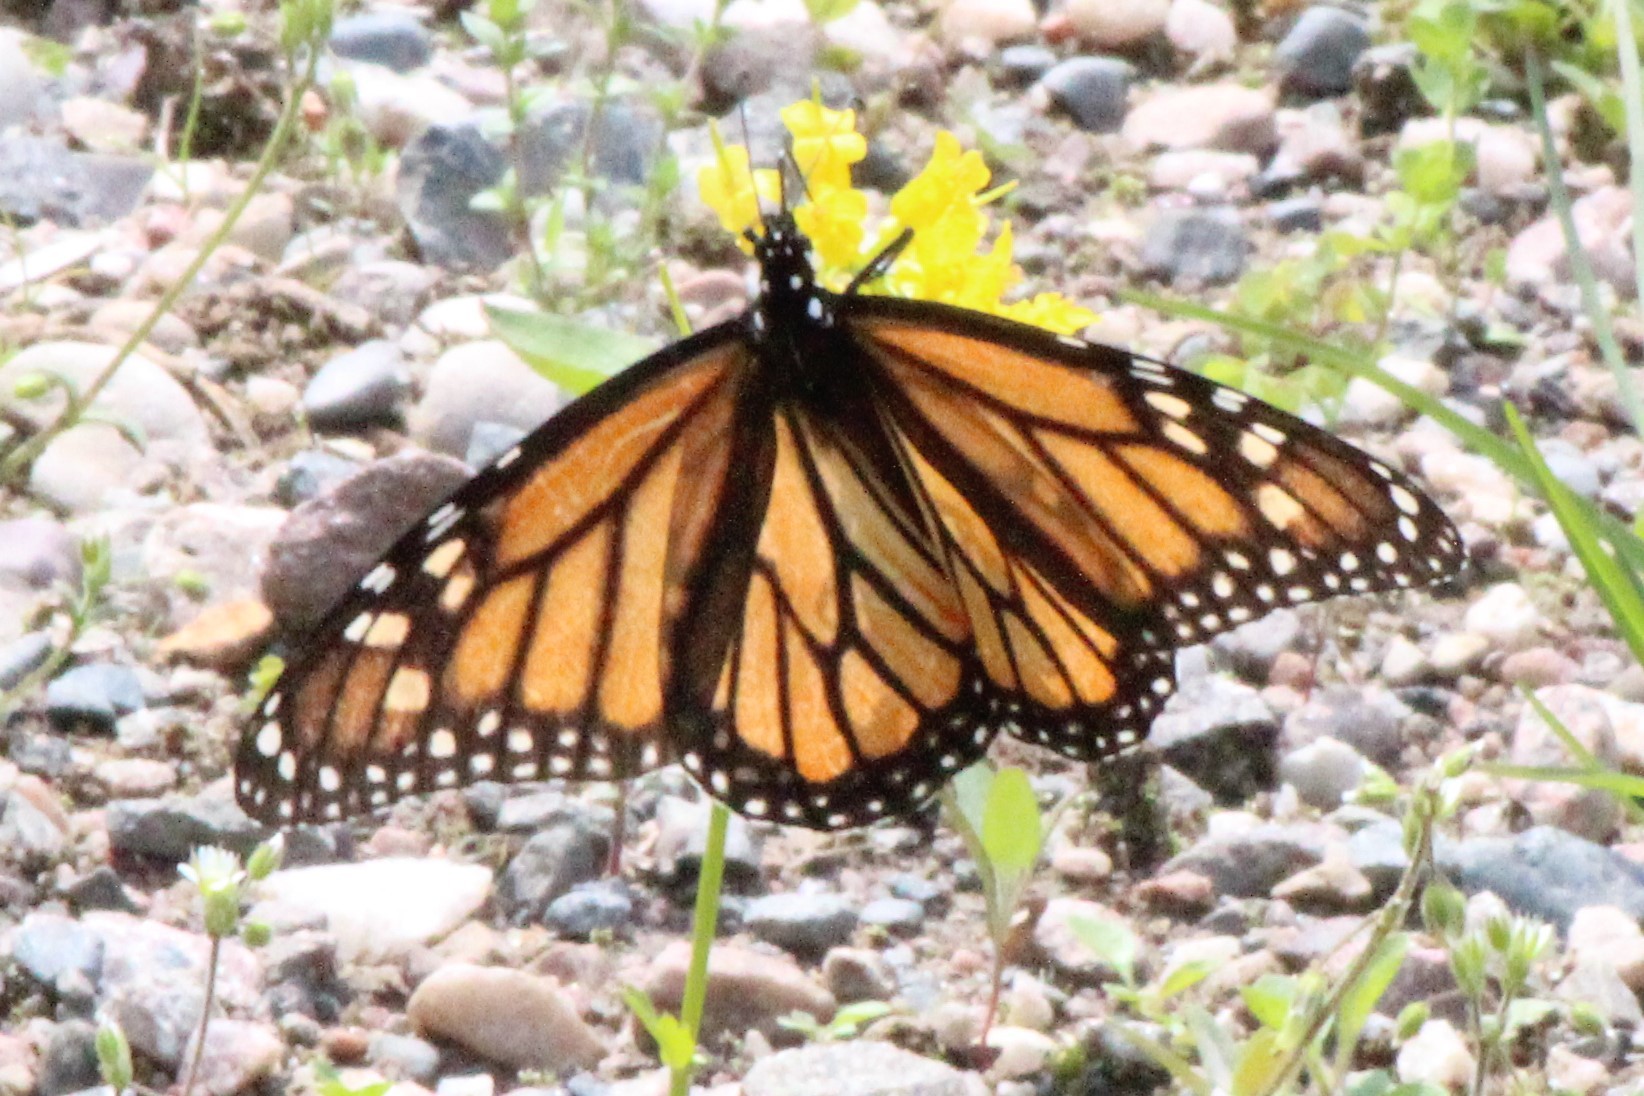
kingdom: Animalia
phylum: Arthropoda
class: Insecta
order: Lepidoptera
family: Nymphalidae
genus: Danaus
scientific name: Danaus plexippus
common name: Monarch
